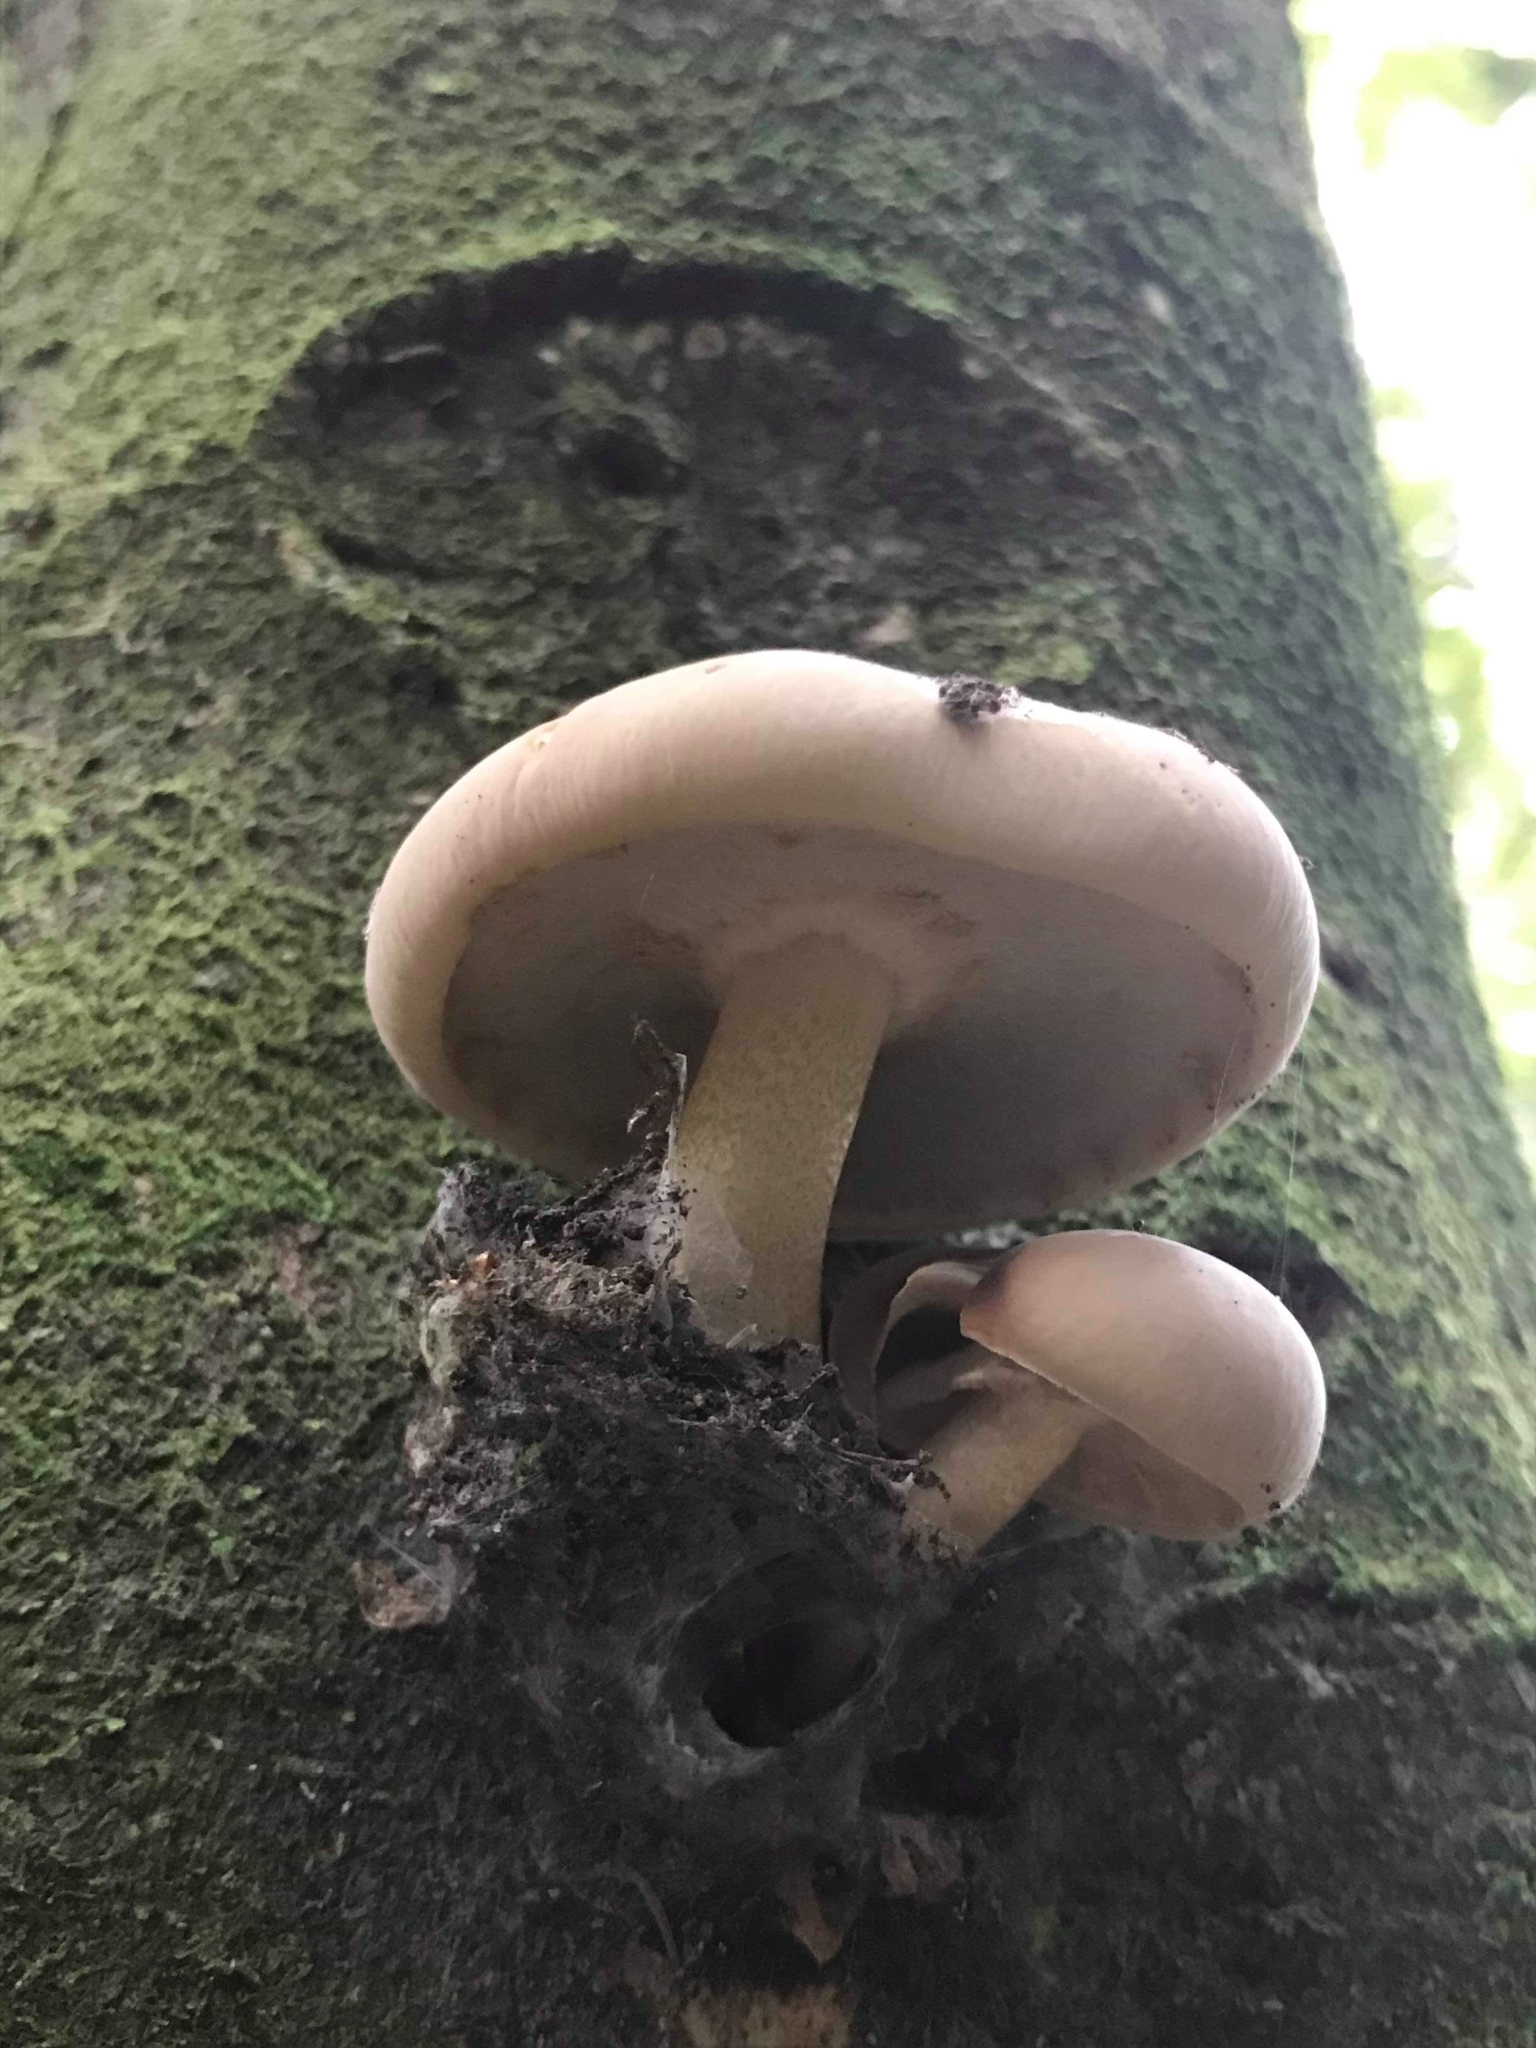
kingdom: Fungi
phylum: Basidiomycota
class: Agaricomycetes
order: Agaricales
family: Tubariaceae
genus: Cyclocybe
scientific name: Cyclocybe parasitica
